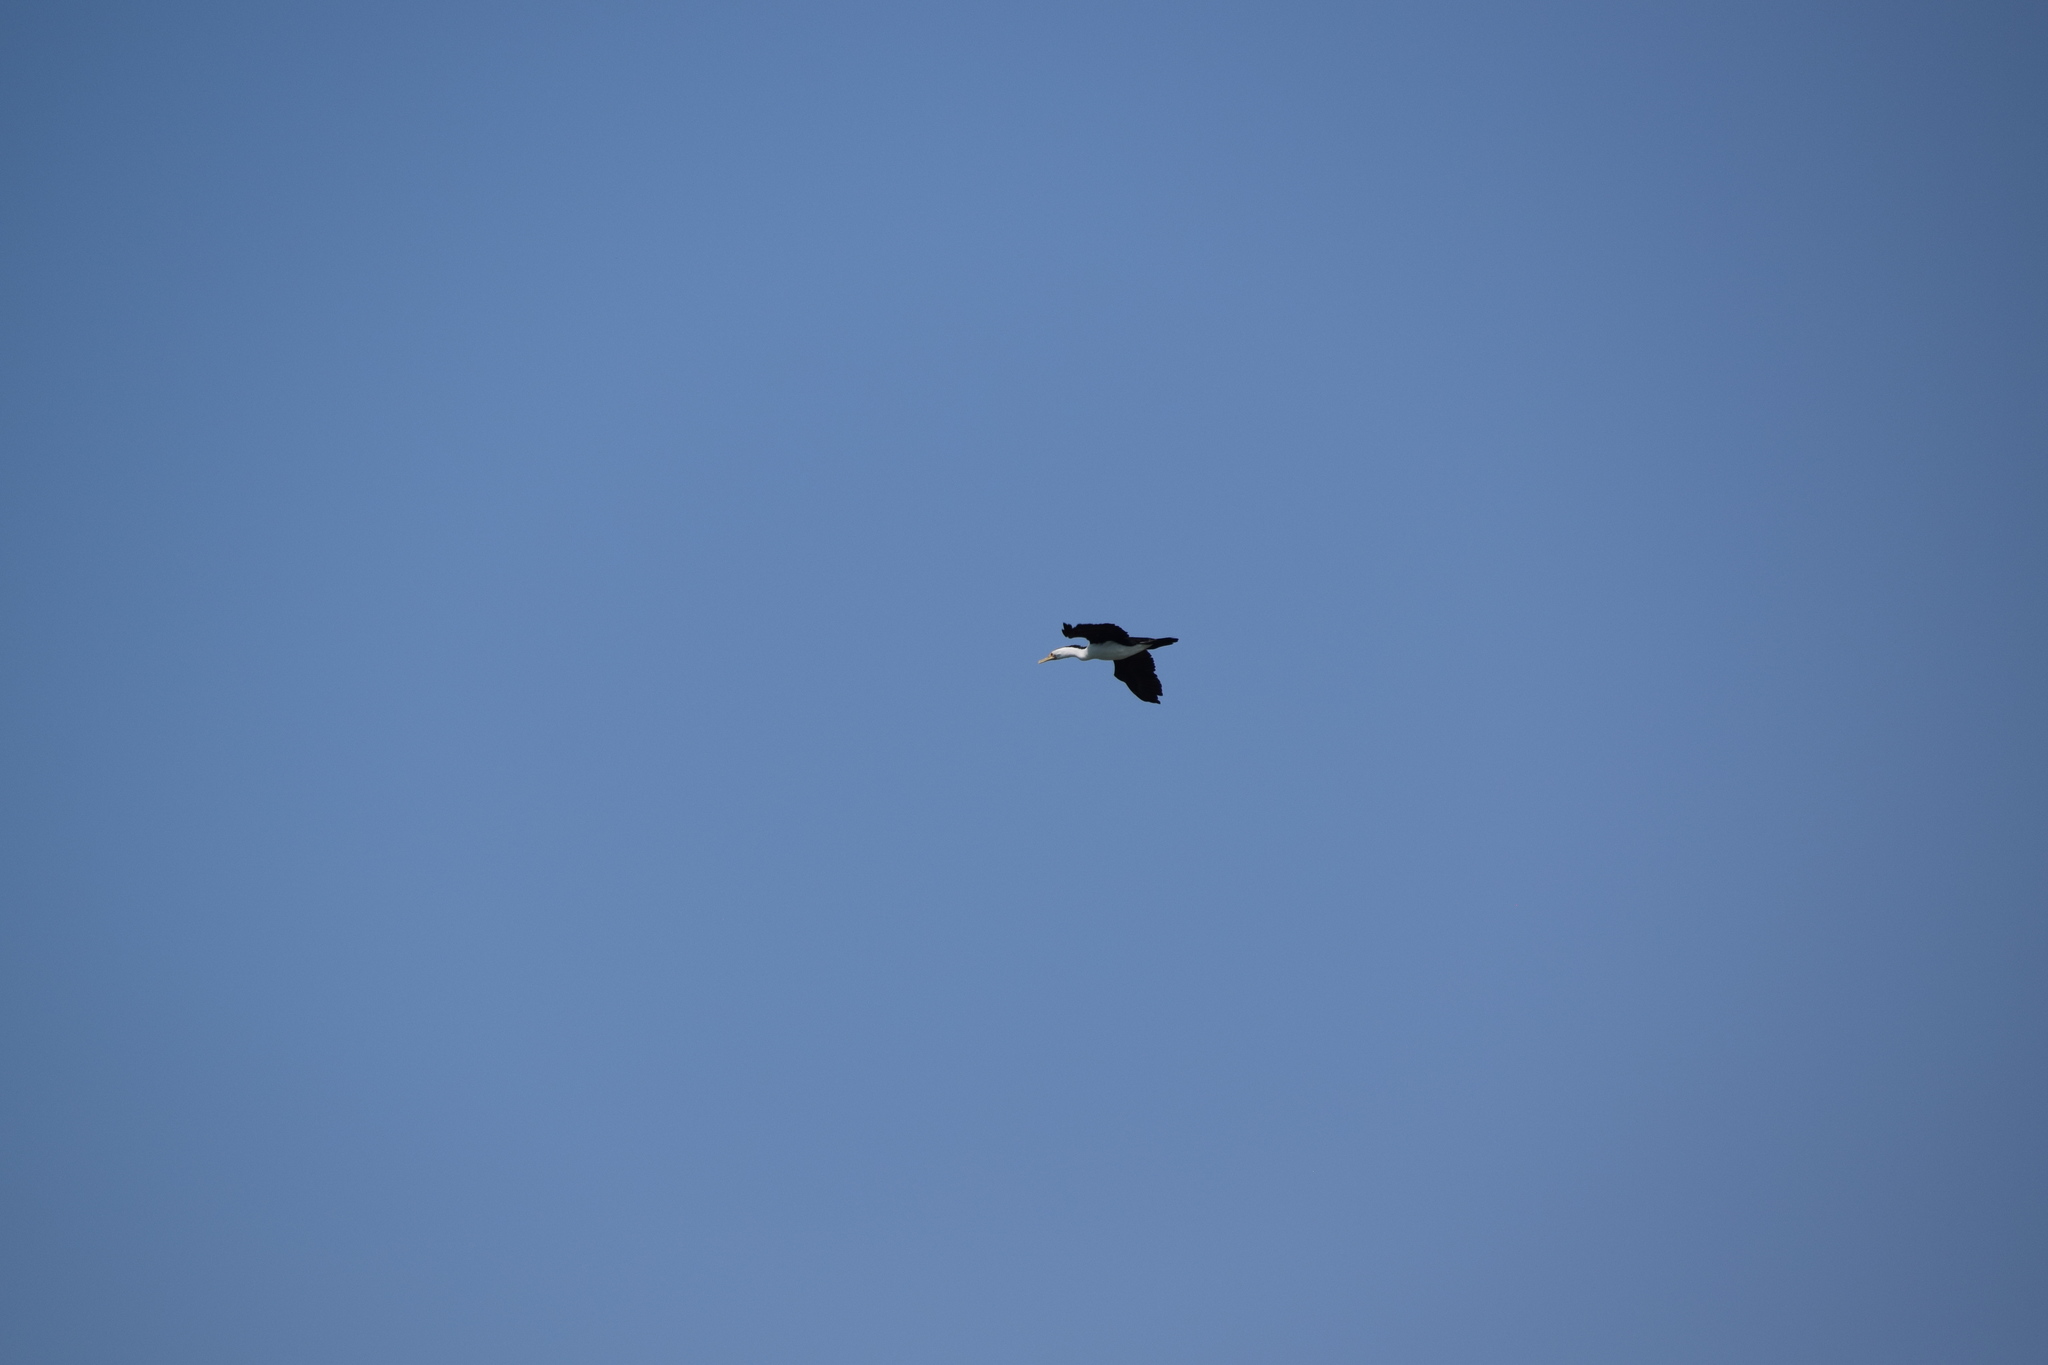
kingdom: Animalia
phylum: Chordata
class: Aves
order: Suliformes
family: Phalacrocoracidae
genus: Phalacrocorax
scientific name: Phalacrocorax varius
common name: Pied cormorant
